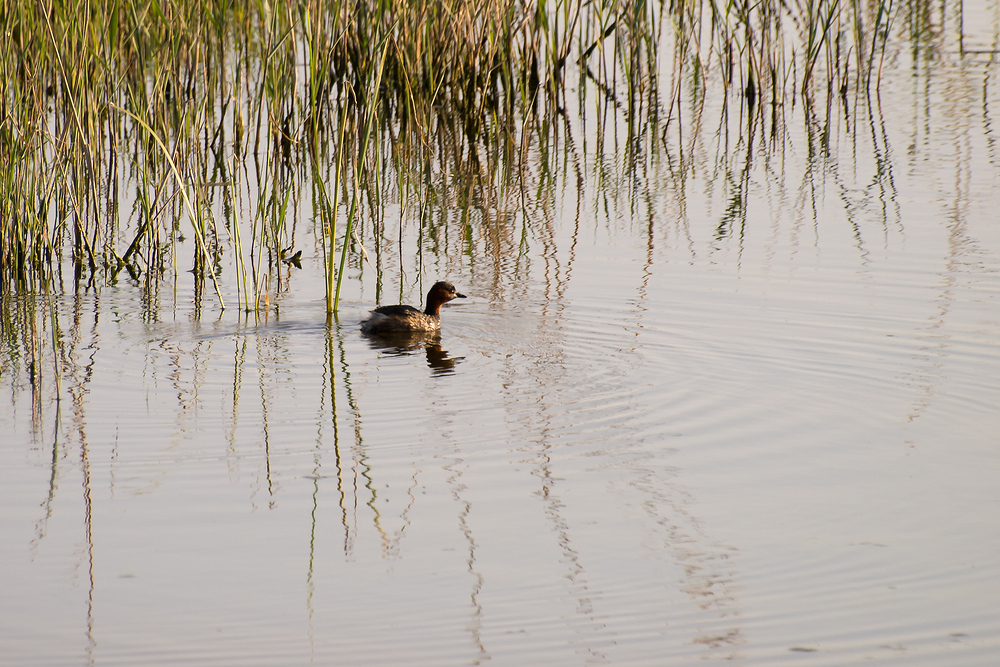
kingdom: Animalia
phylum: Chordata
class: Aves
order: Podicipediformes
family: Podicipedidae
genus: Tachybaptus
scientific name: Tachybaptus ruficollis
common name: Little grebe
